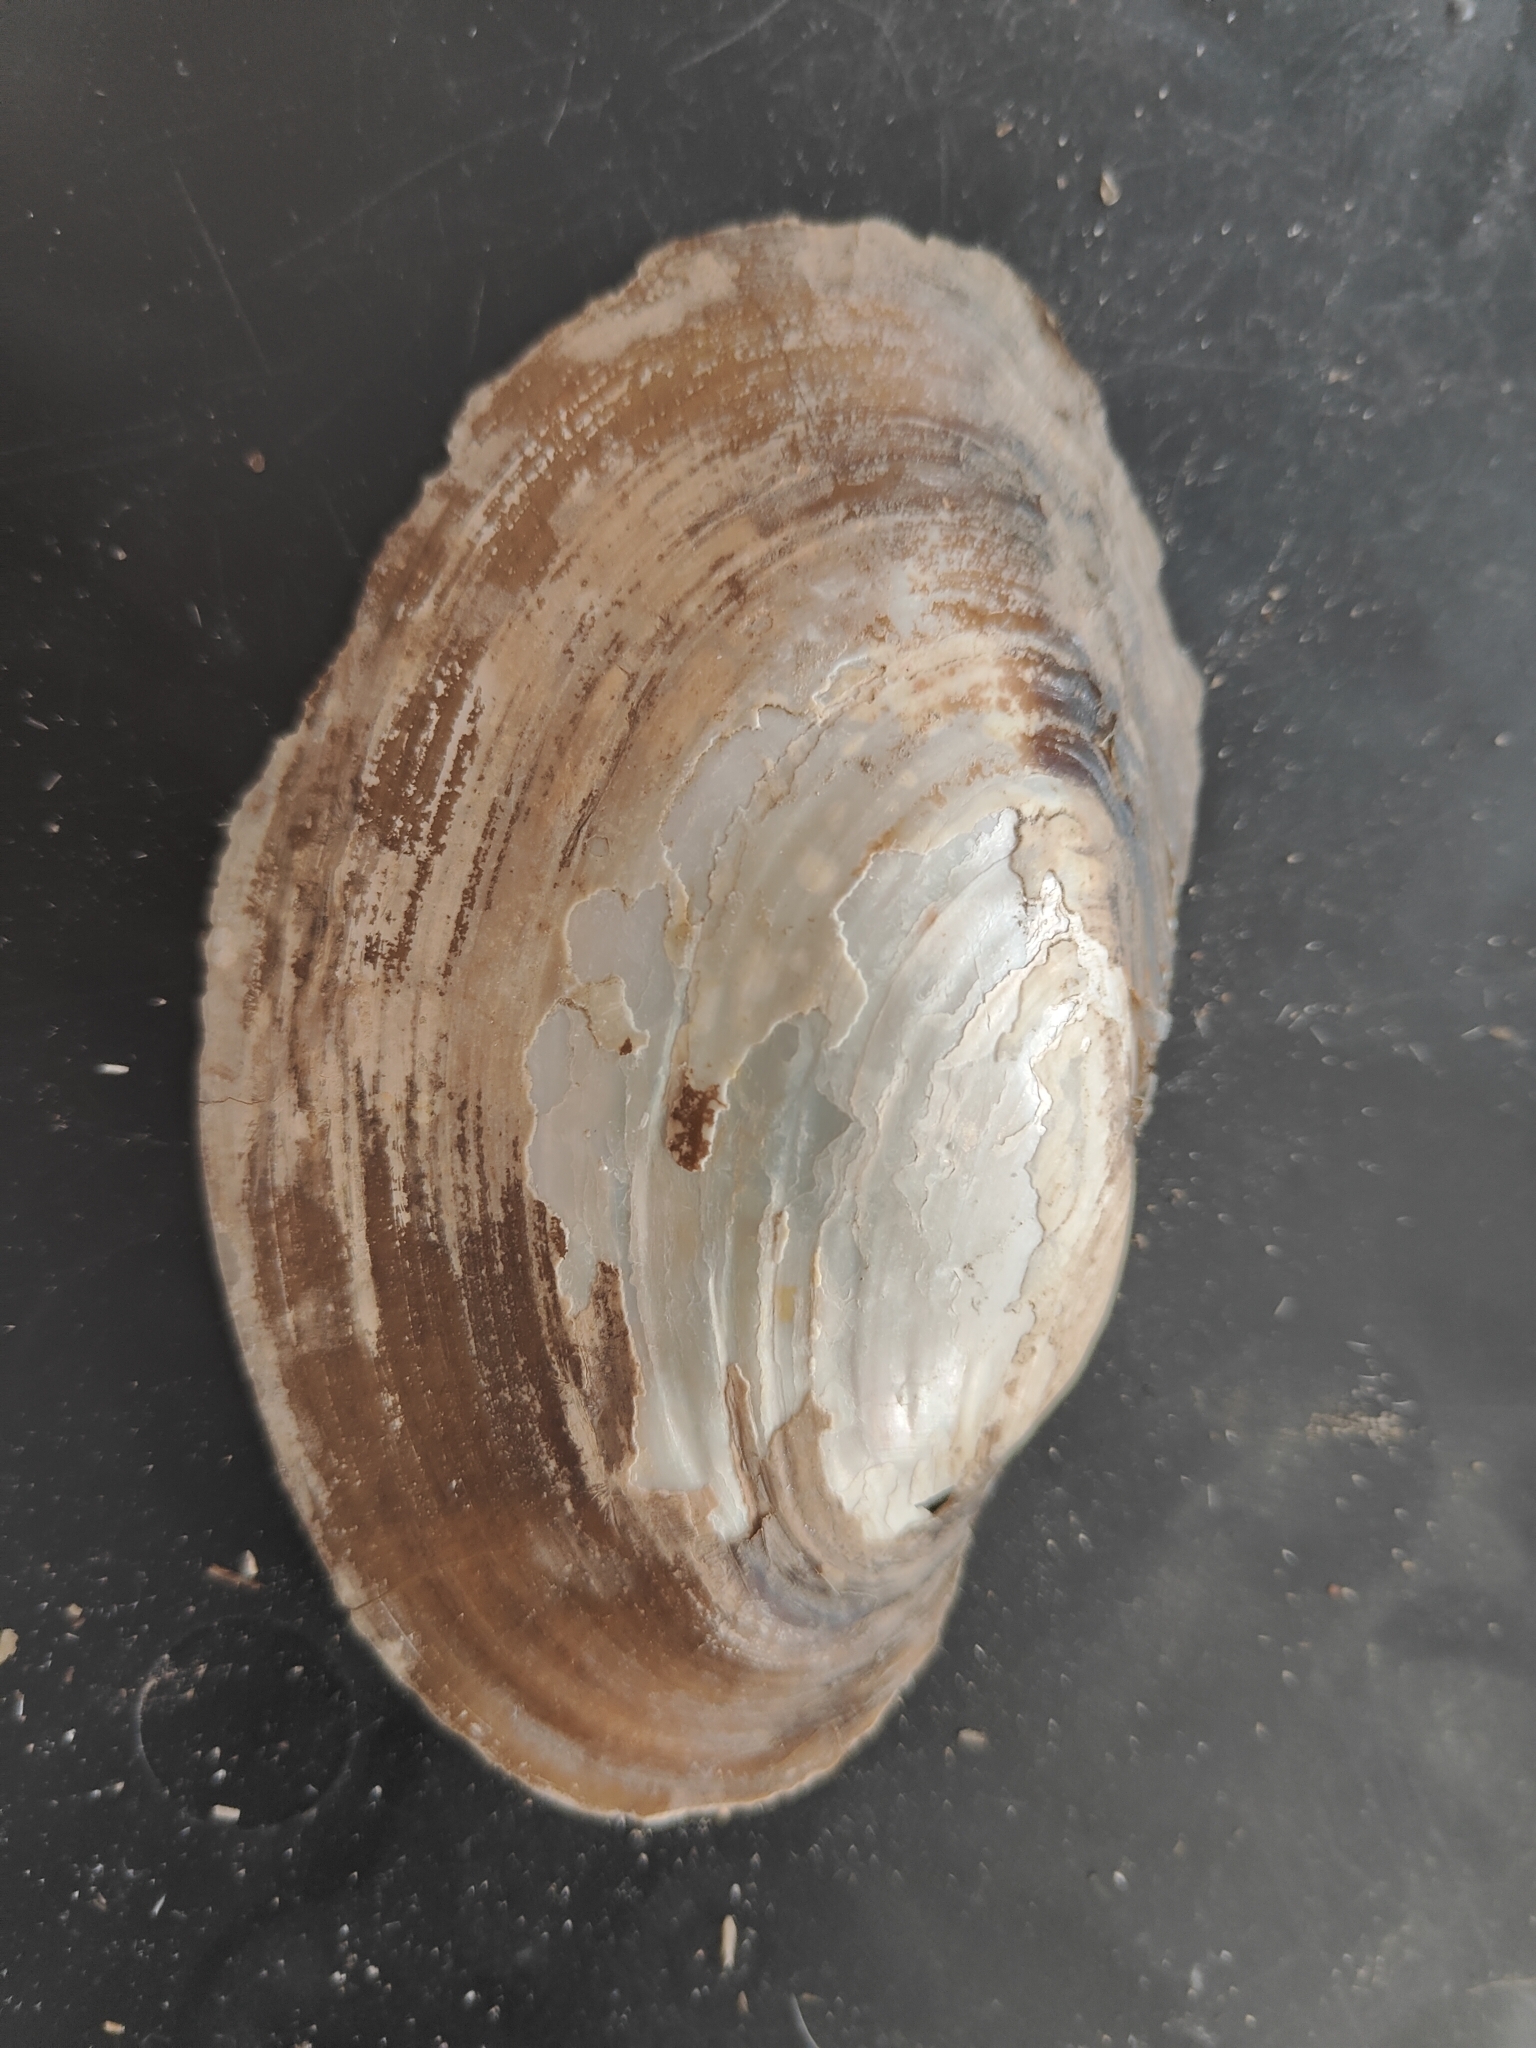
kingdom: Animalia
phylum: Mollusca
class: Bivalvia
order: Unionida
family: Unionidae
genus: Potamilus
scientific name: Potamilus fragilis
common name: Fragile papershell
